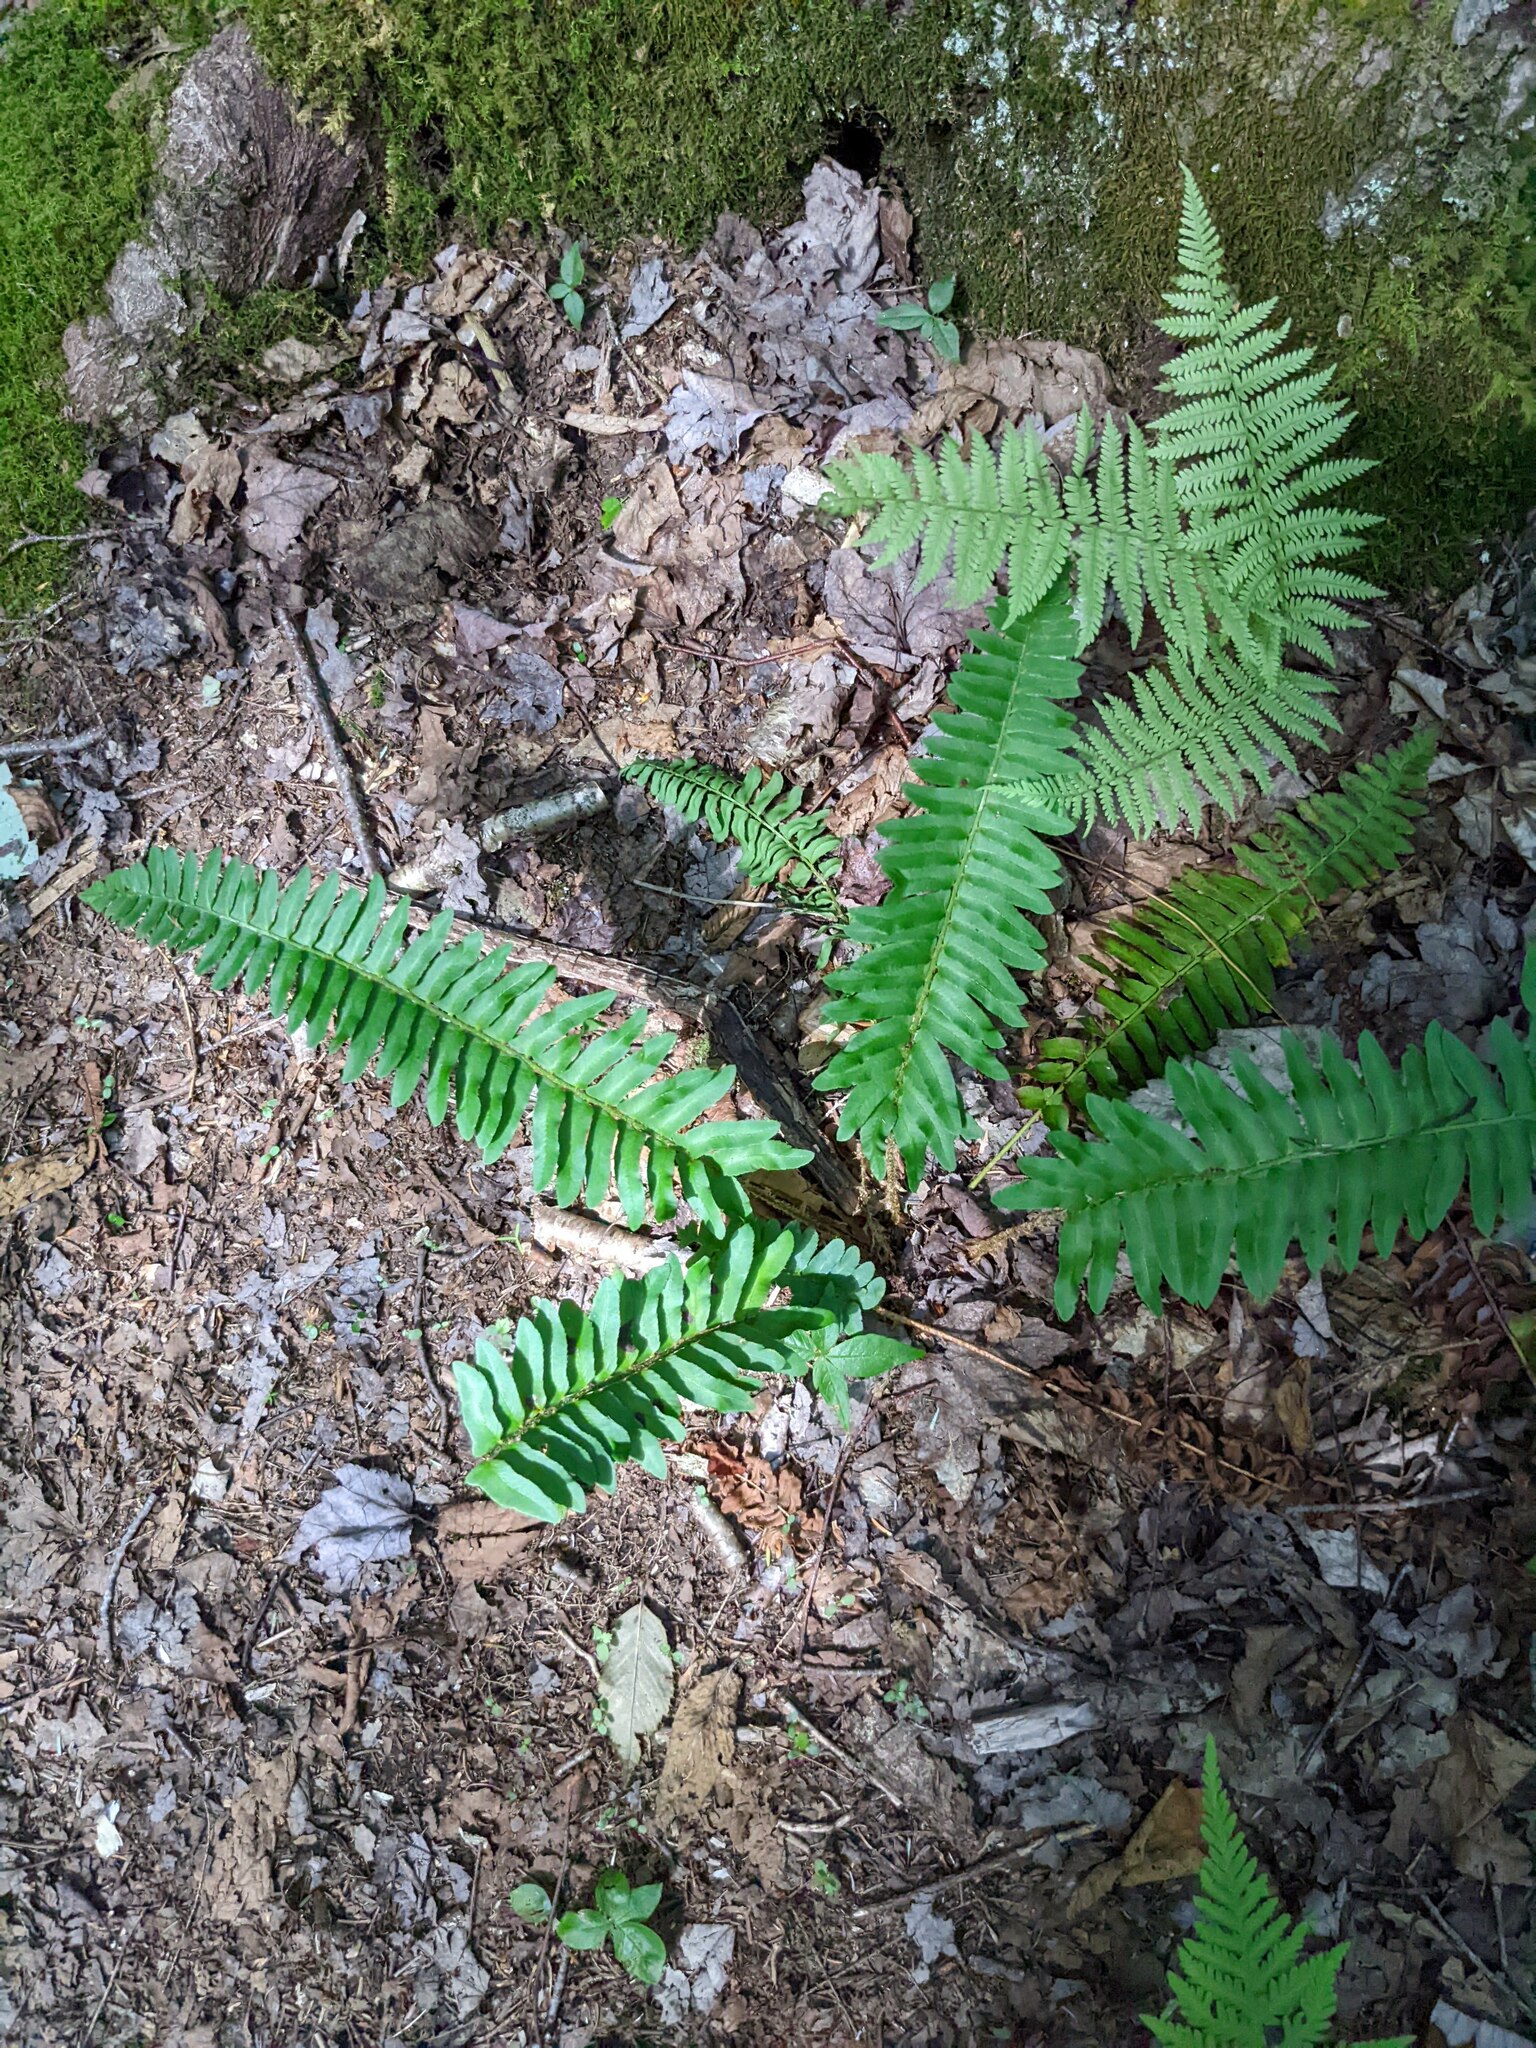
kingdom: Plantae
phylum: Tracheophyta
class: Polypodiopsida
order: Polypodiales
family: Dryopteridaceae
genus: Polystichum
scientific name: Polystichum acrostichoides
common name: Christmas fern
